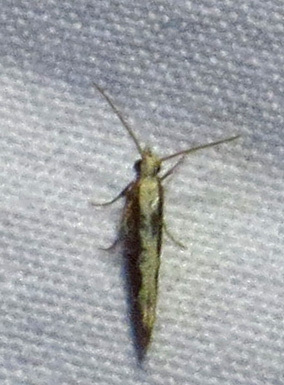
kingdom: Animalia
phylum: Arthropoda
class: Insecta
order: Lepidoptera
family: Plutellidae
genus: Plutella
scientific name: Plutella xylostella
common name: Diamond-back moth
